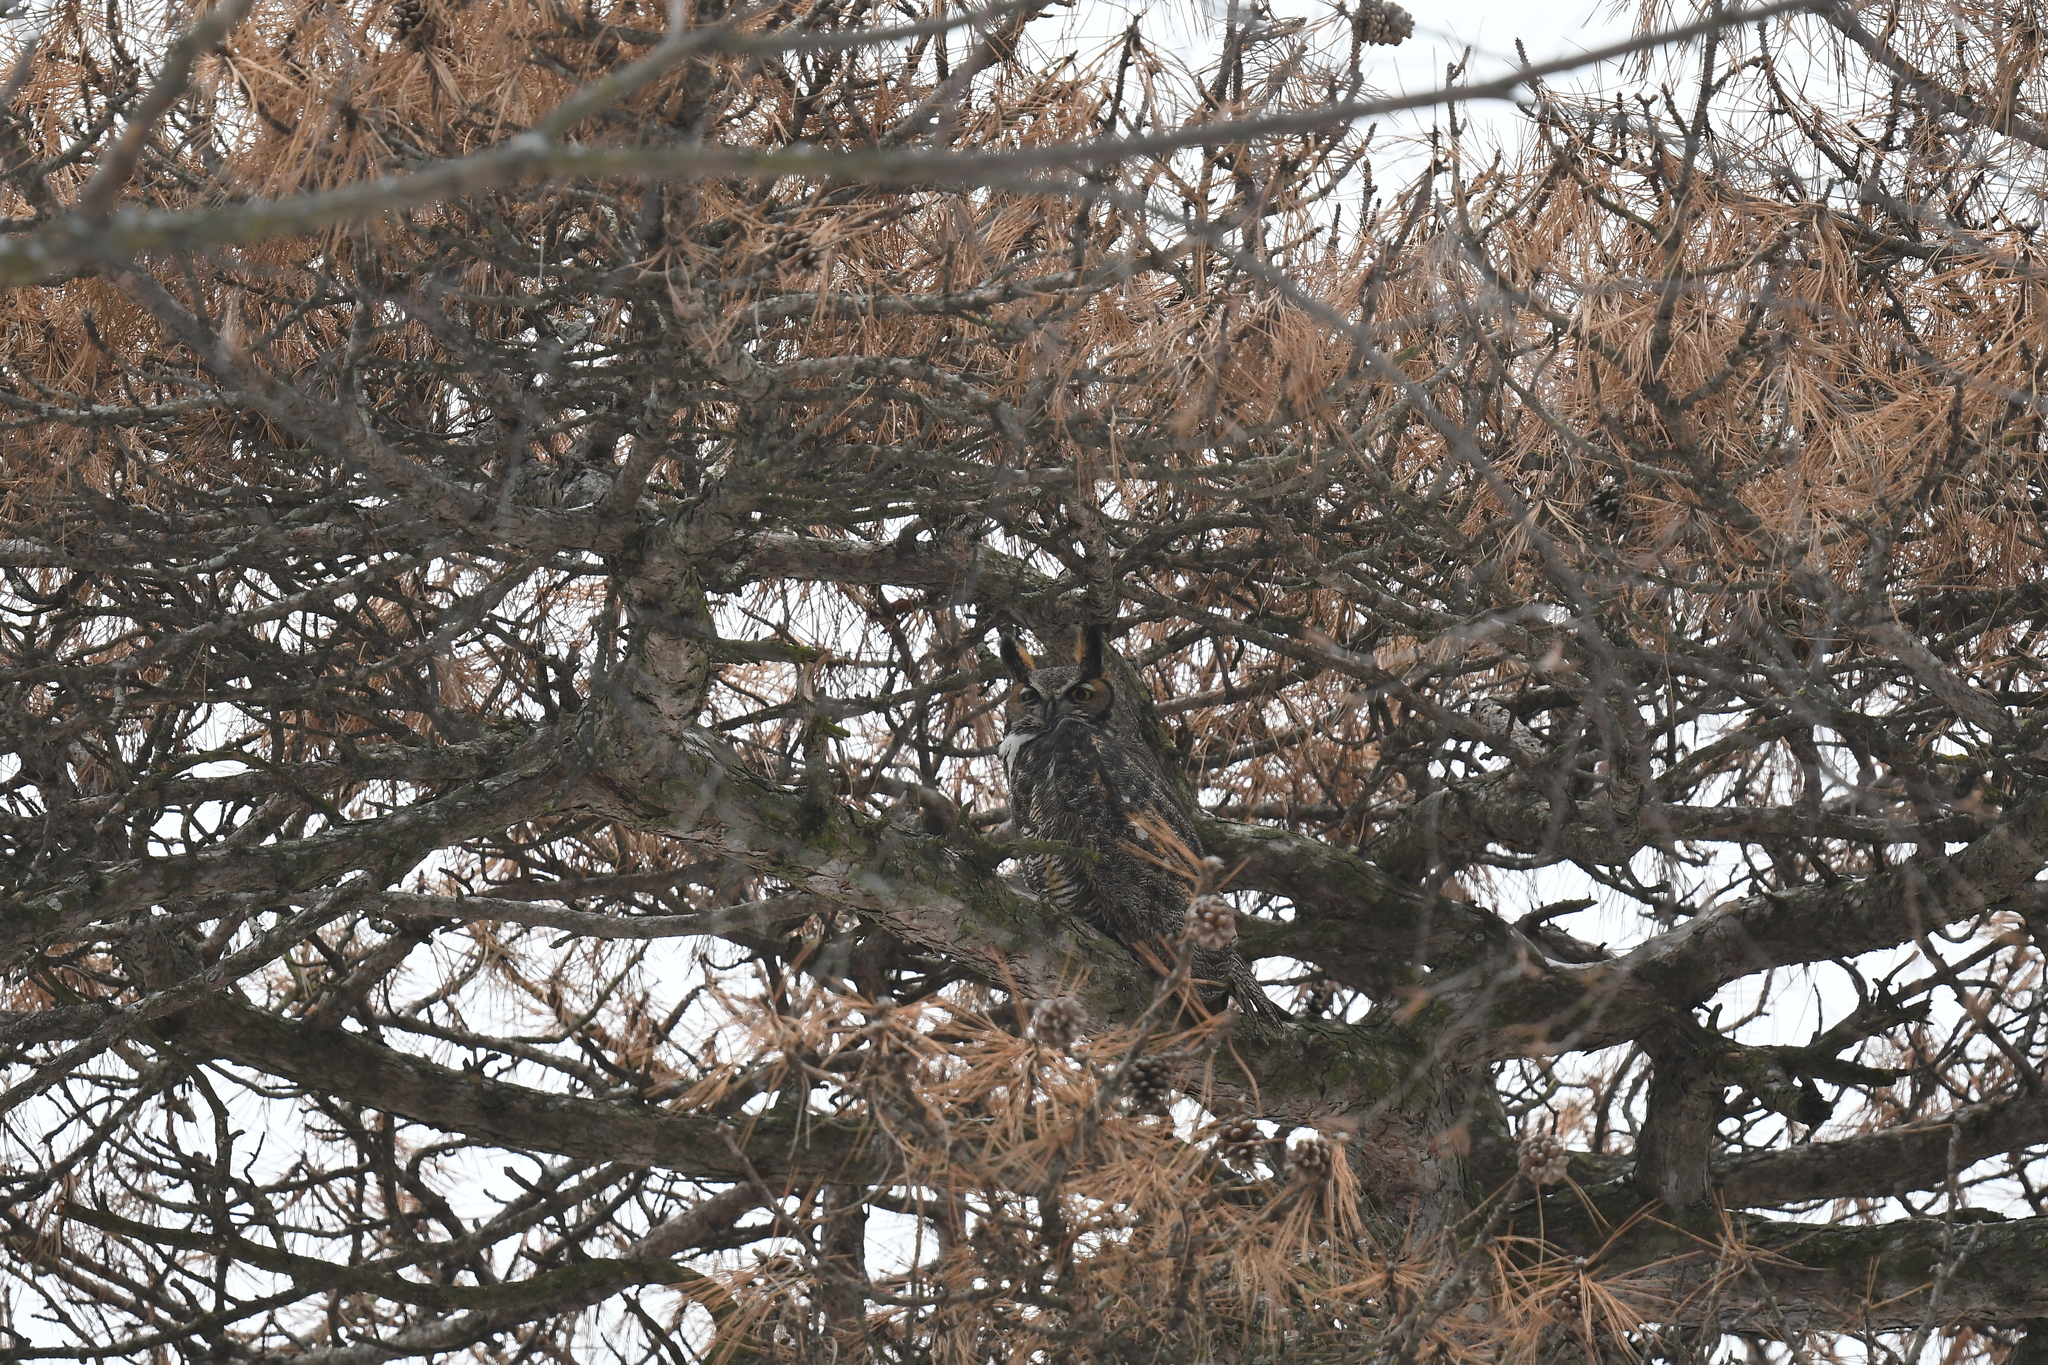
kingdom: Animalia
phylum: Chordata
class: Aves
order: Strigiformes
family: Strigidae
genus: Bubo
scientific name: Bubo virginianus
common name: Great horned owl
